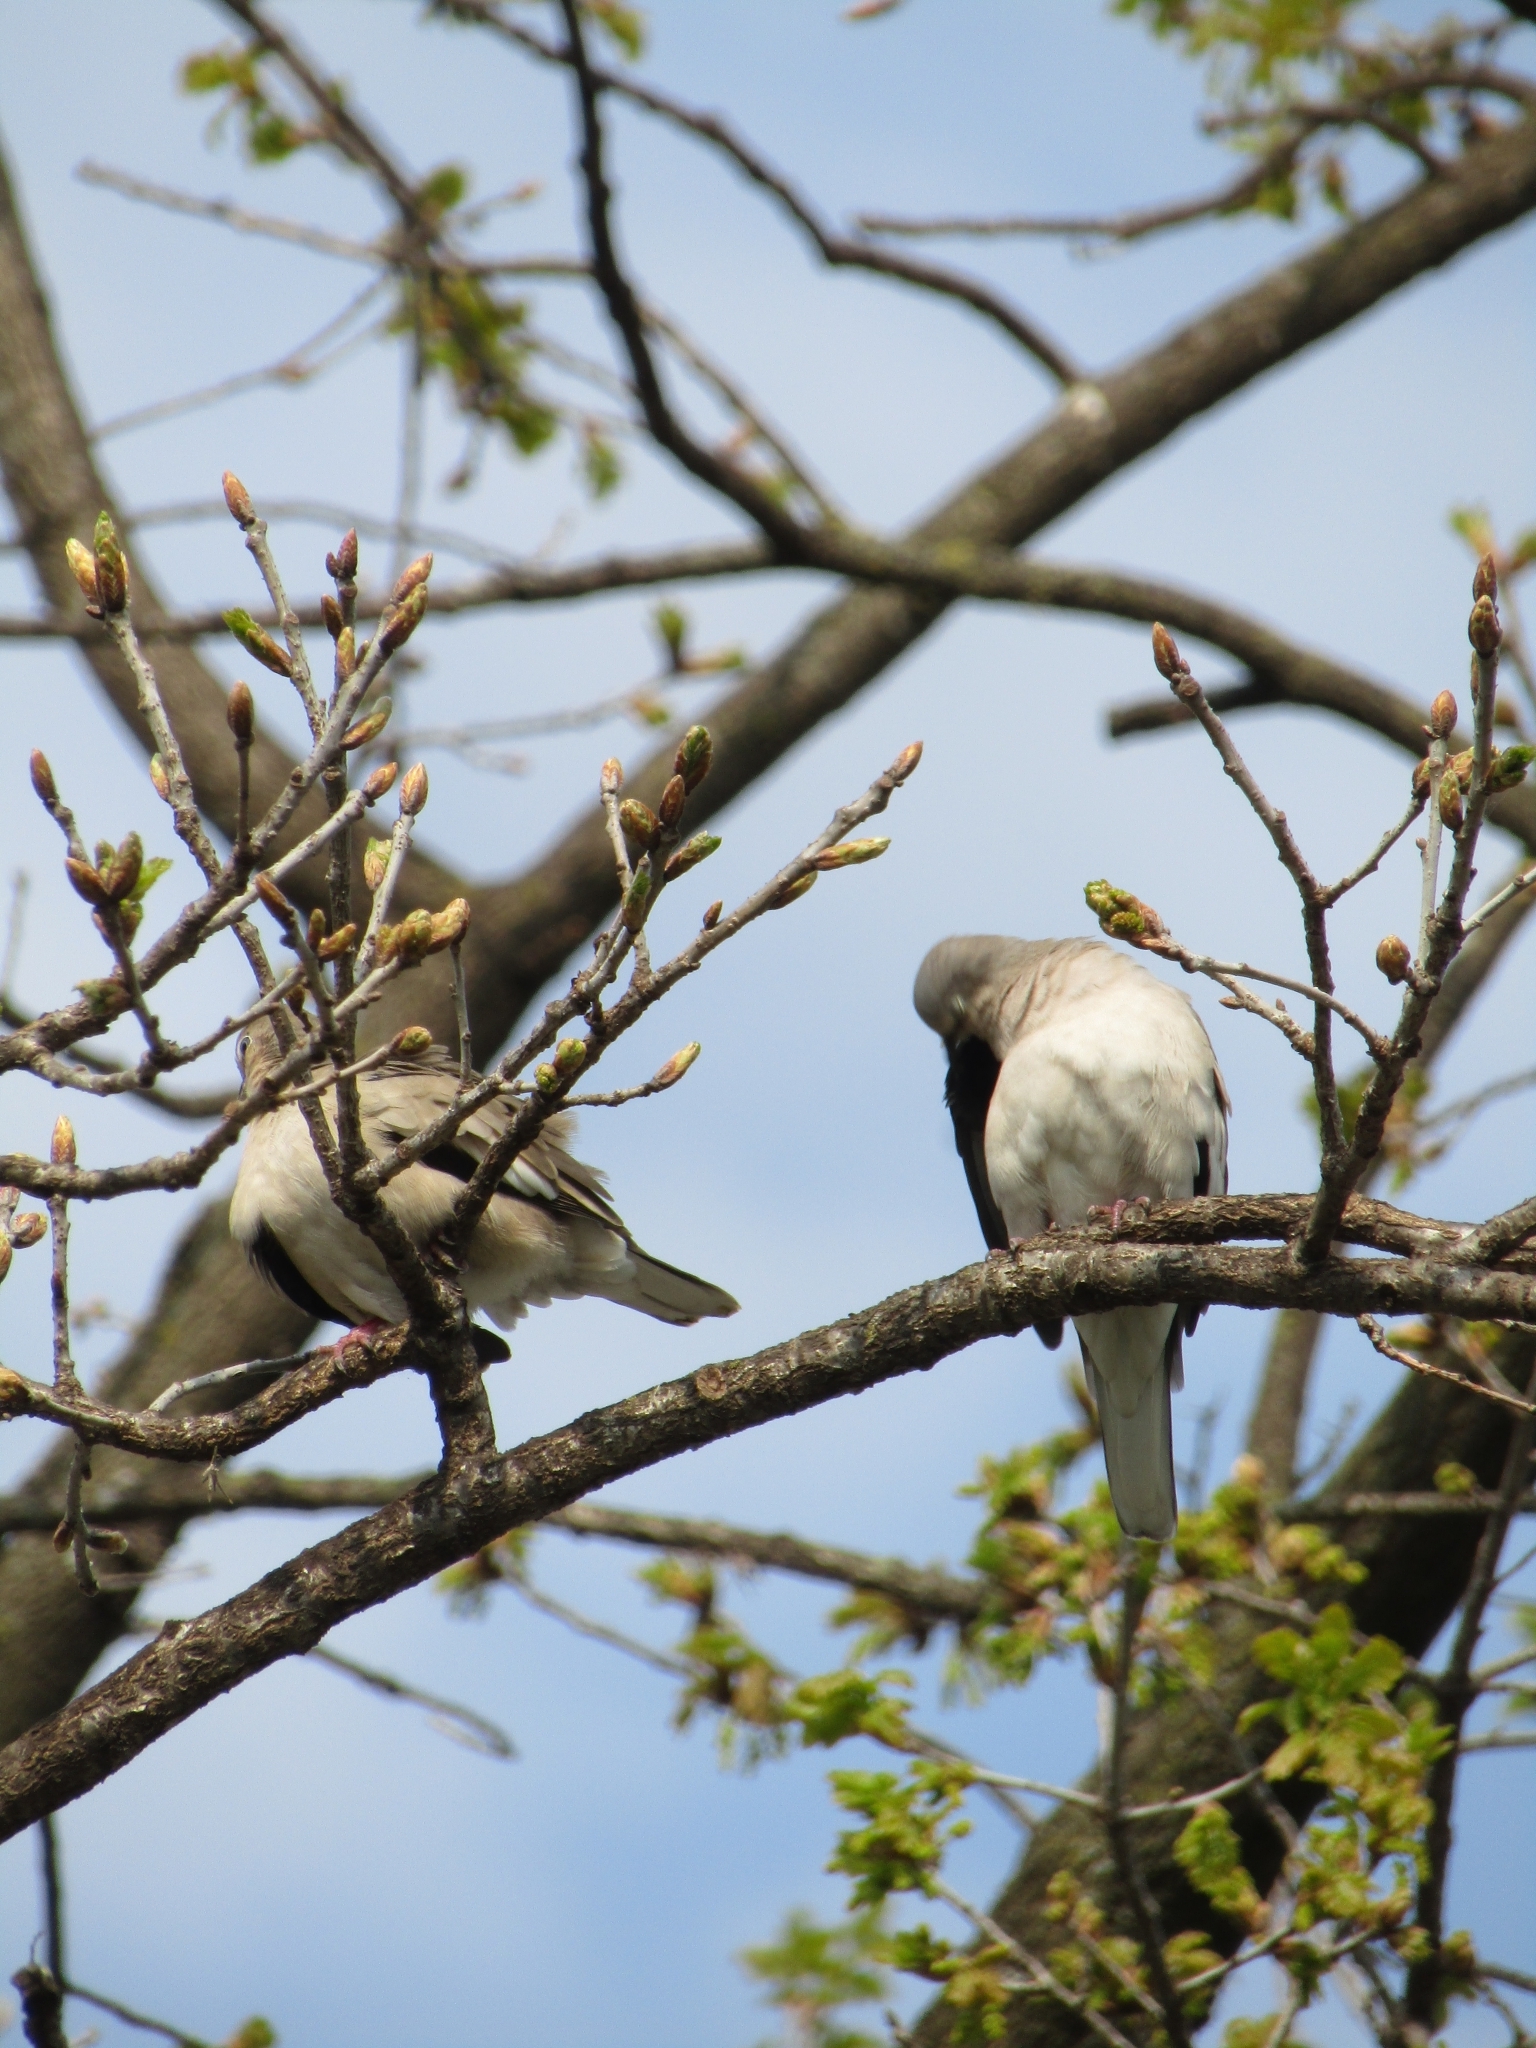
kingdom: Animalia
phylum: Chordata
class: Aves
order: Columbiformes
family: Columbidae
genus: Columbina
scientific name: Columbina picui
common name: Picui ground dove
